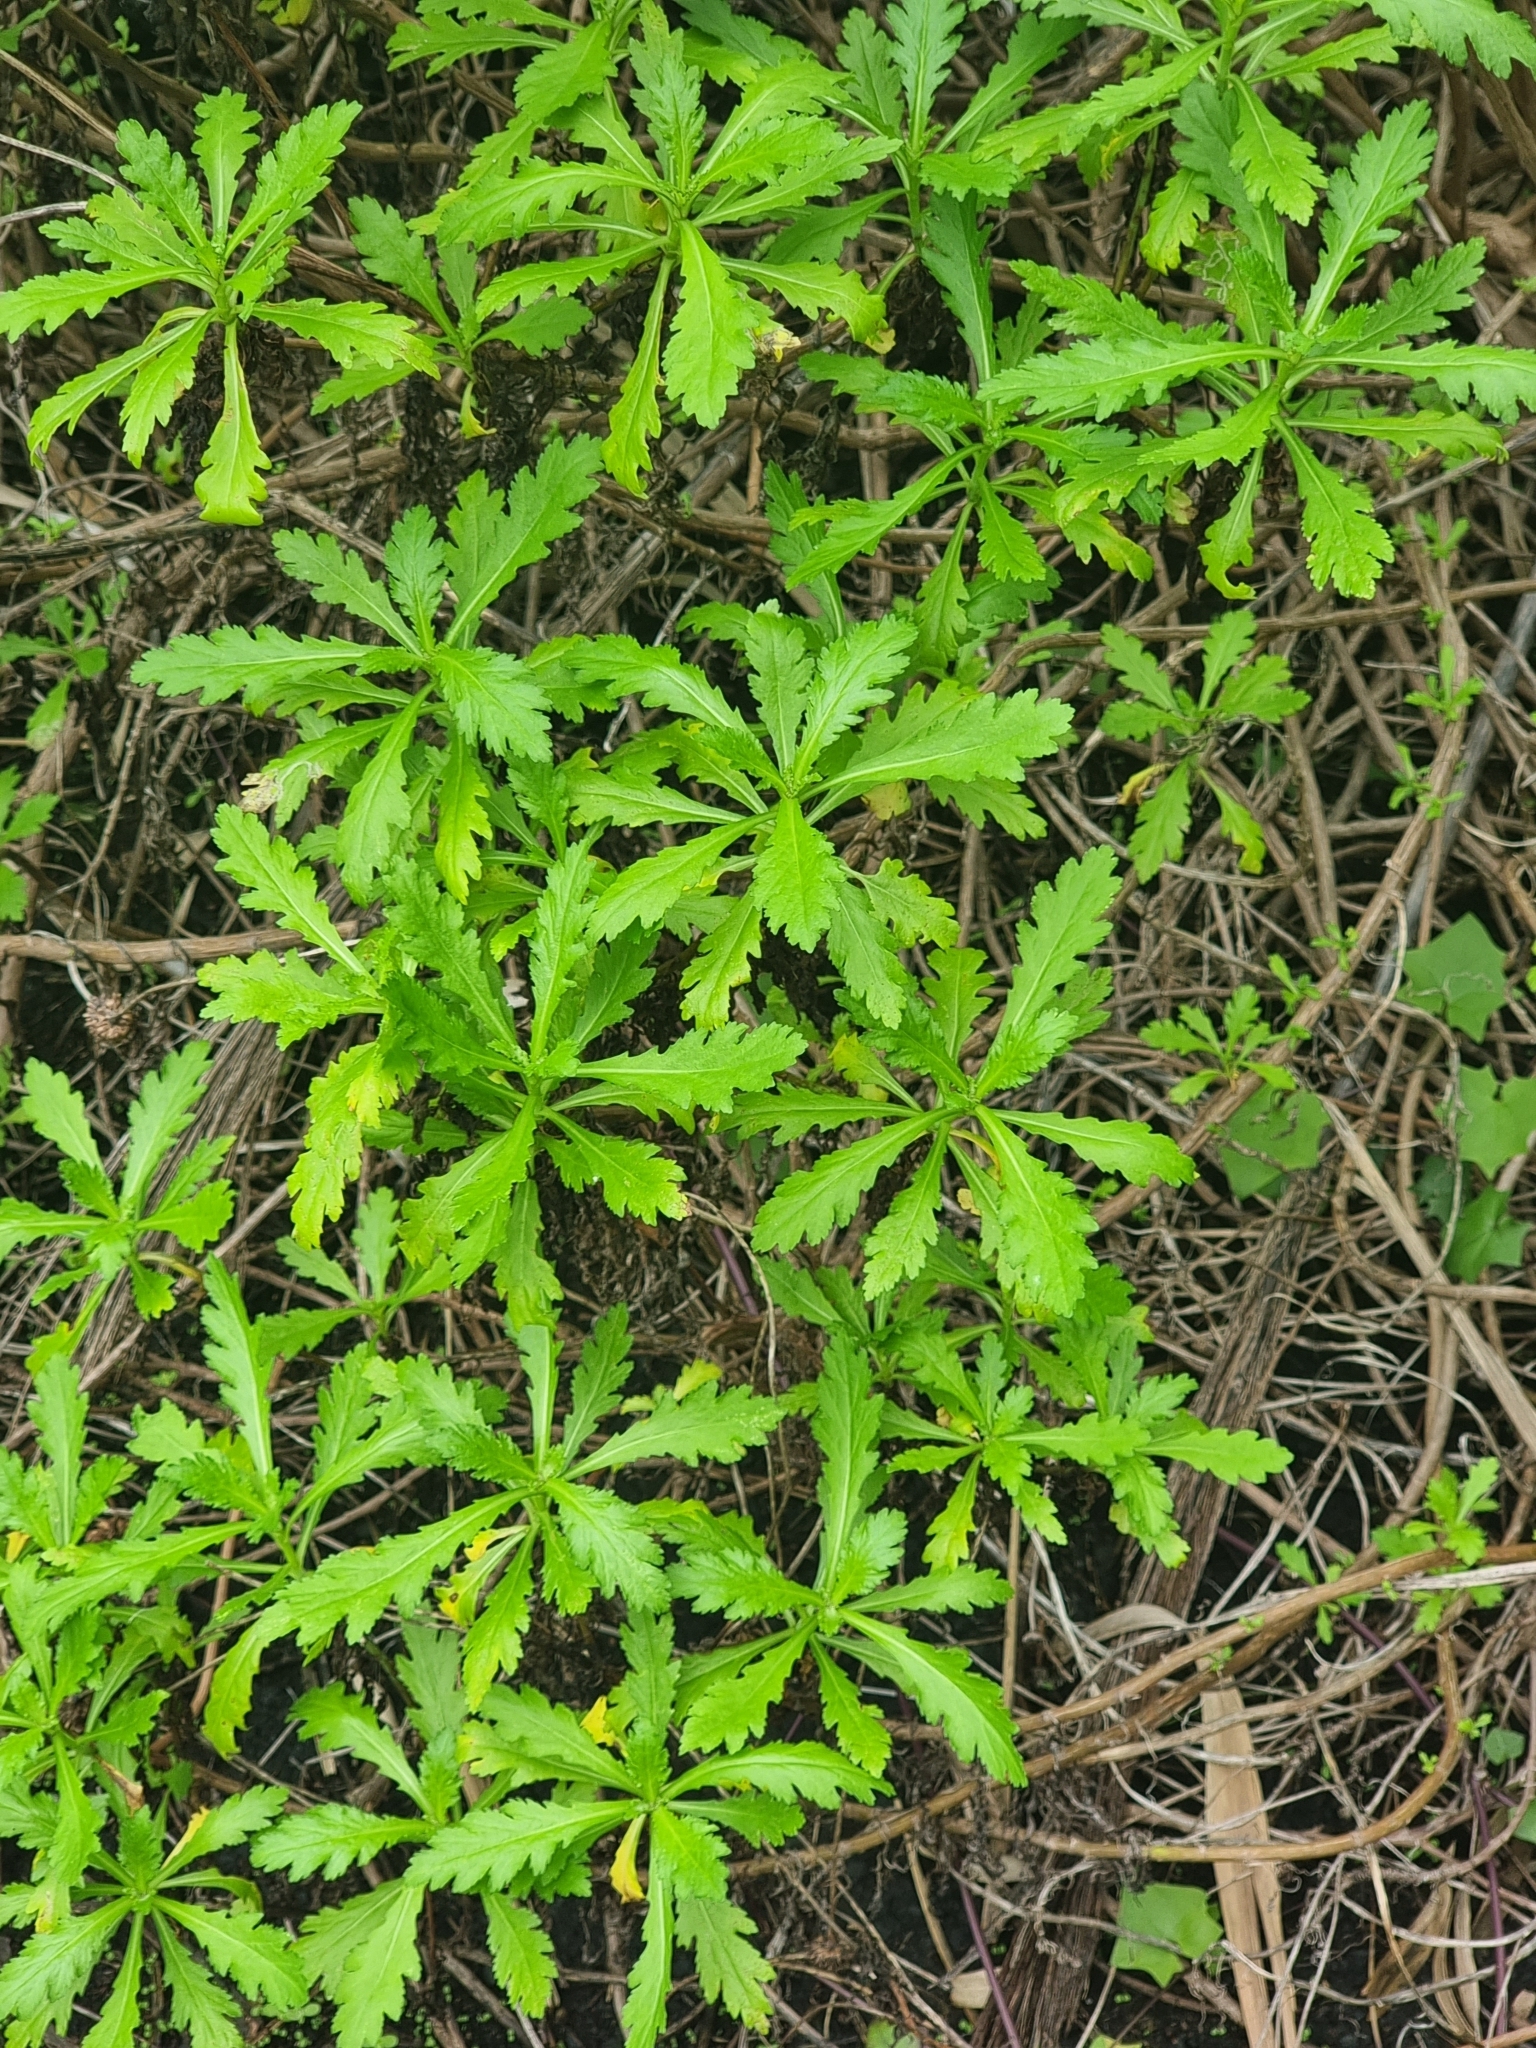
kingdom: Plantae
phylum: Tracheophyta
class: Magnoliopsida
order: Asterales
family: Asteraceae
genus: Argyranthemum
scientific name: Argyranthemum pinnatifidum
